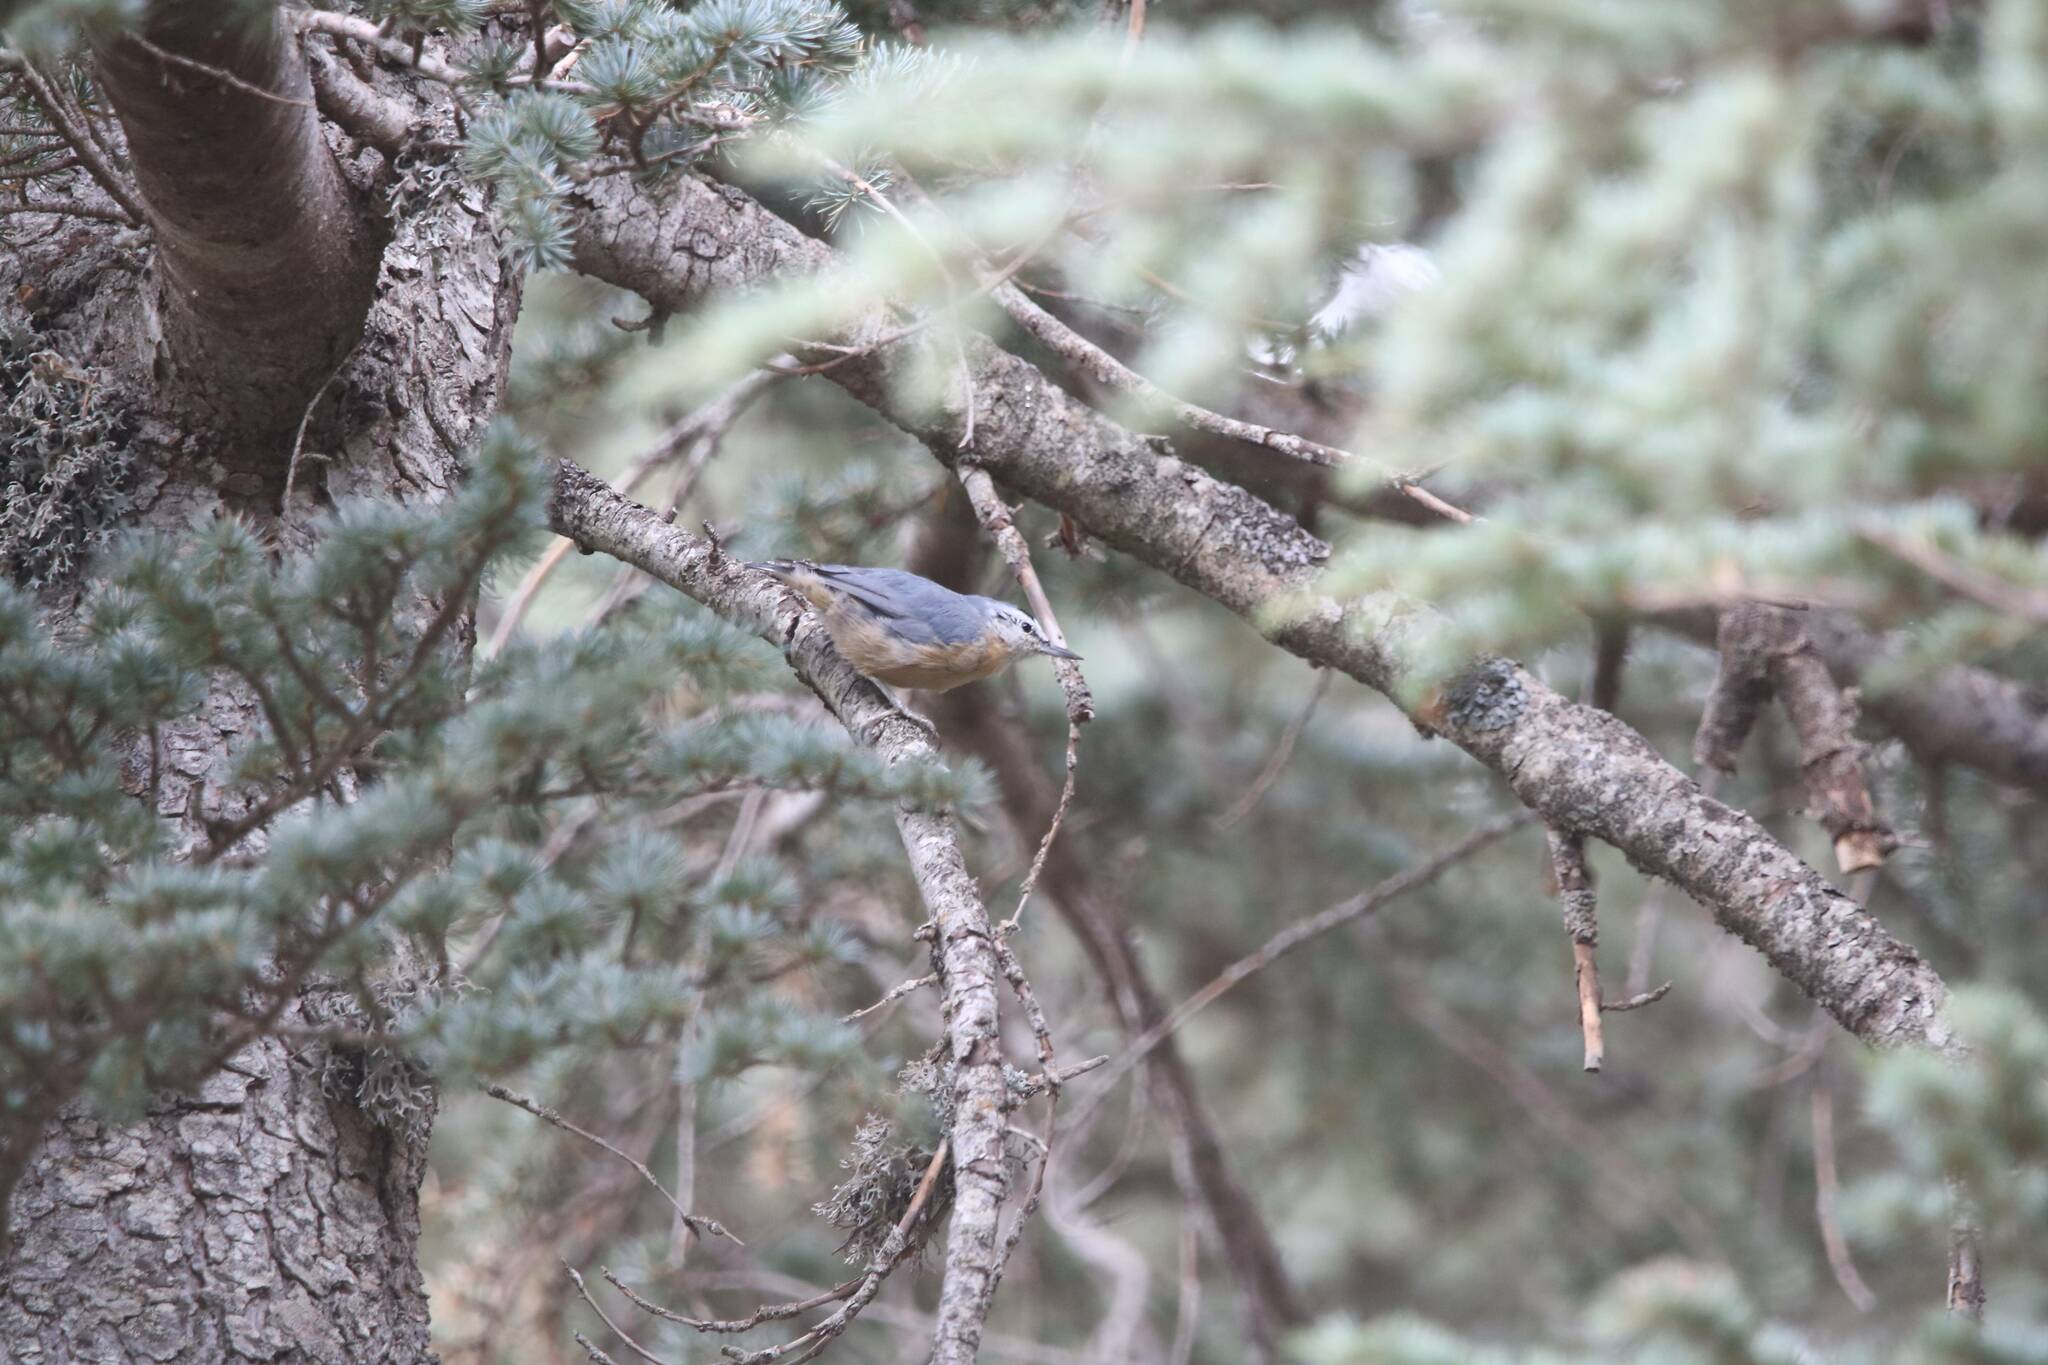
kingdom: Animalia
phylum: Chordata
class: Aves
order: Passeriformes
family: Sittidae
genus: Sitta
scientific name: Sitta ledanti
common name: Algerian nuthatch
